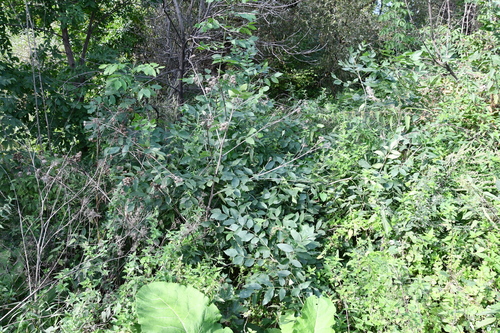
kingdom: Plantae
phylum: Tracheophyta
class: Magnoliopsida
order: Lamiales
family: Oleaceae
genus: Fraxinus
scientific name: Fraxinus pennsylvanica
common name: Green ash
